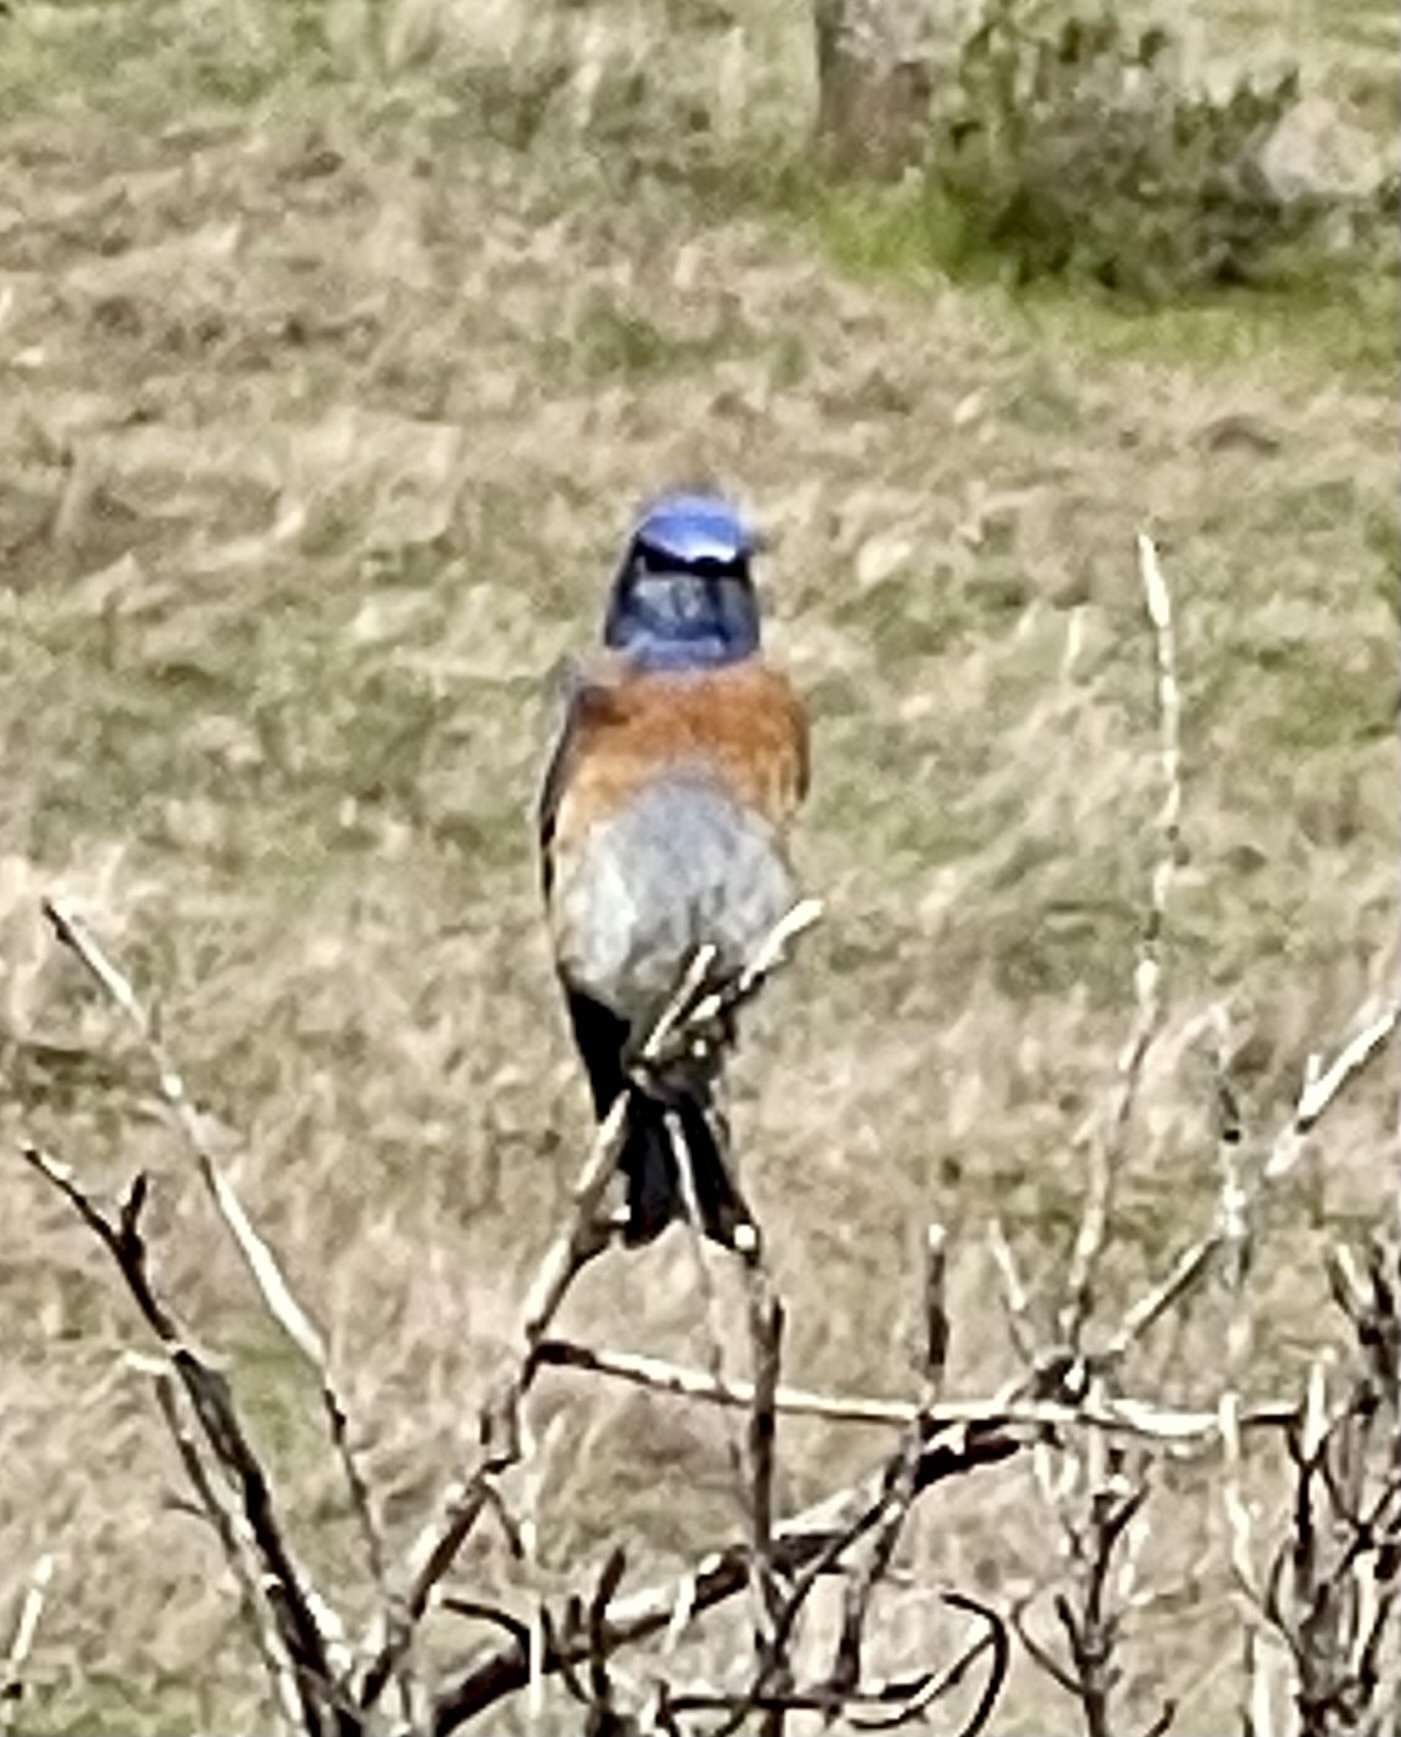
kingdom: Animalia
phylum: Chordata
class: Aves
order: Passeriformes
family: Turdidae
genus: Sialia
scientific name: Sialia mexicana
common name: Western bluebird
